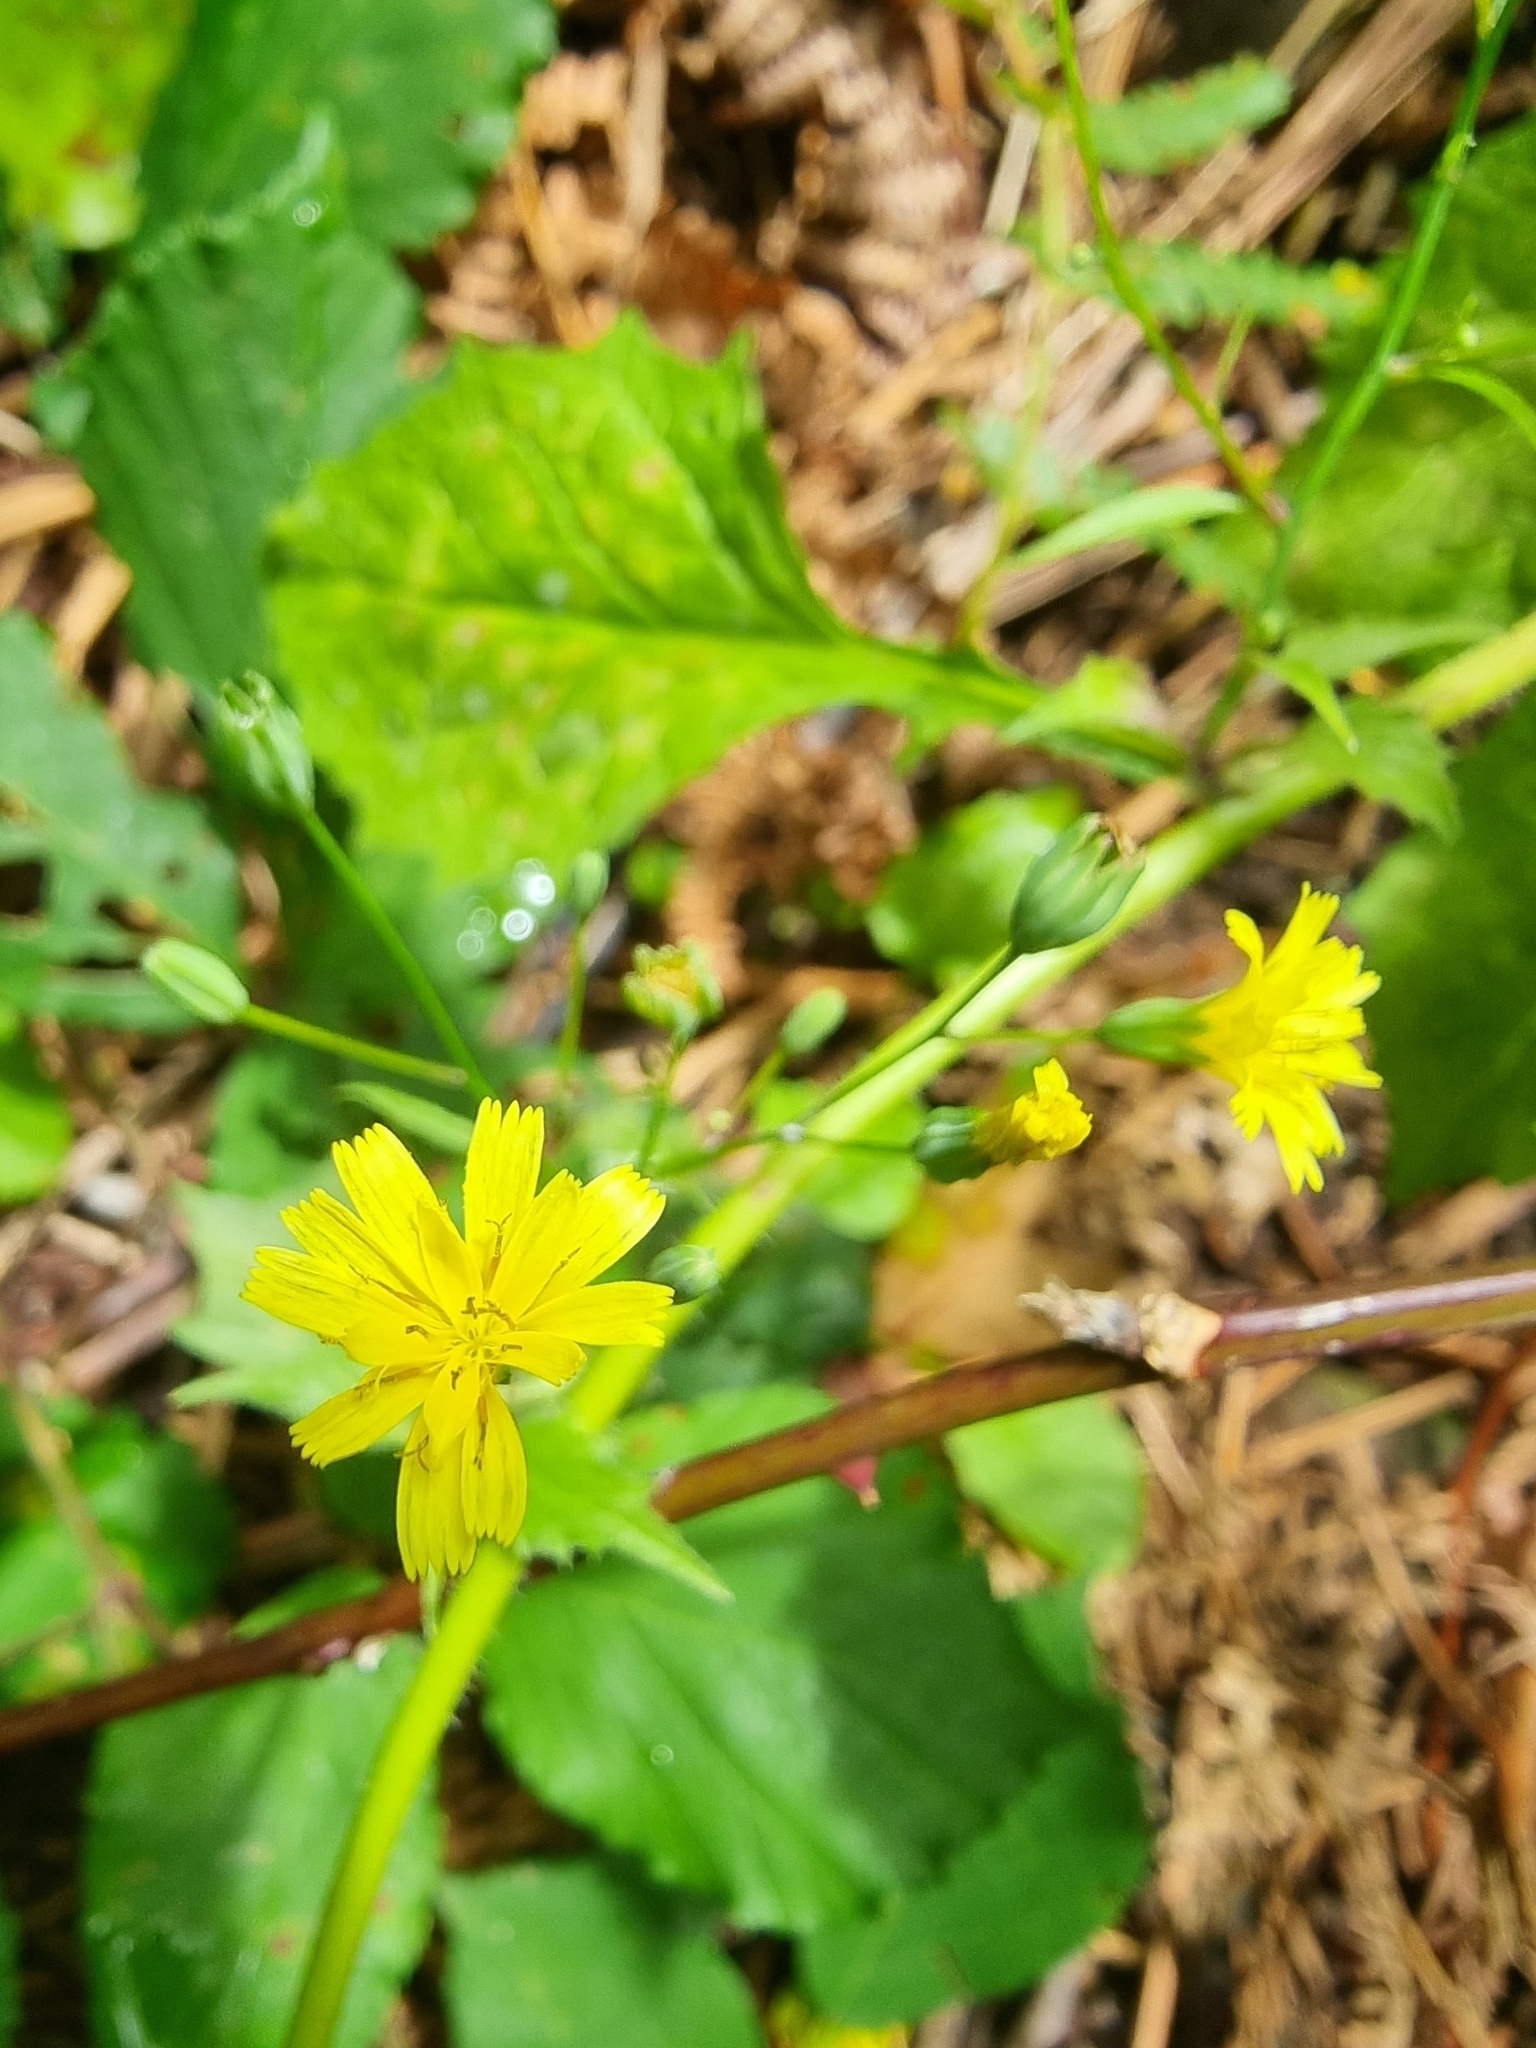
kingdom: Plantae
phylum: Tracheophyta
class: Magnoliopsida
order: Asterales
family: Asteraceae
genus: Lapsana
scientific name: Lapsana communis
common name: Nipplewort
